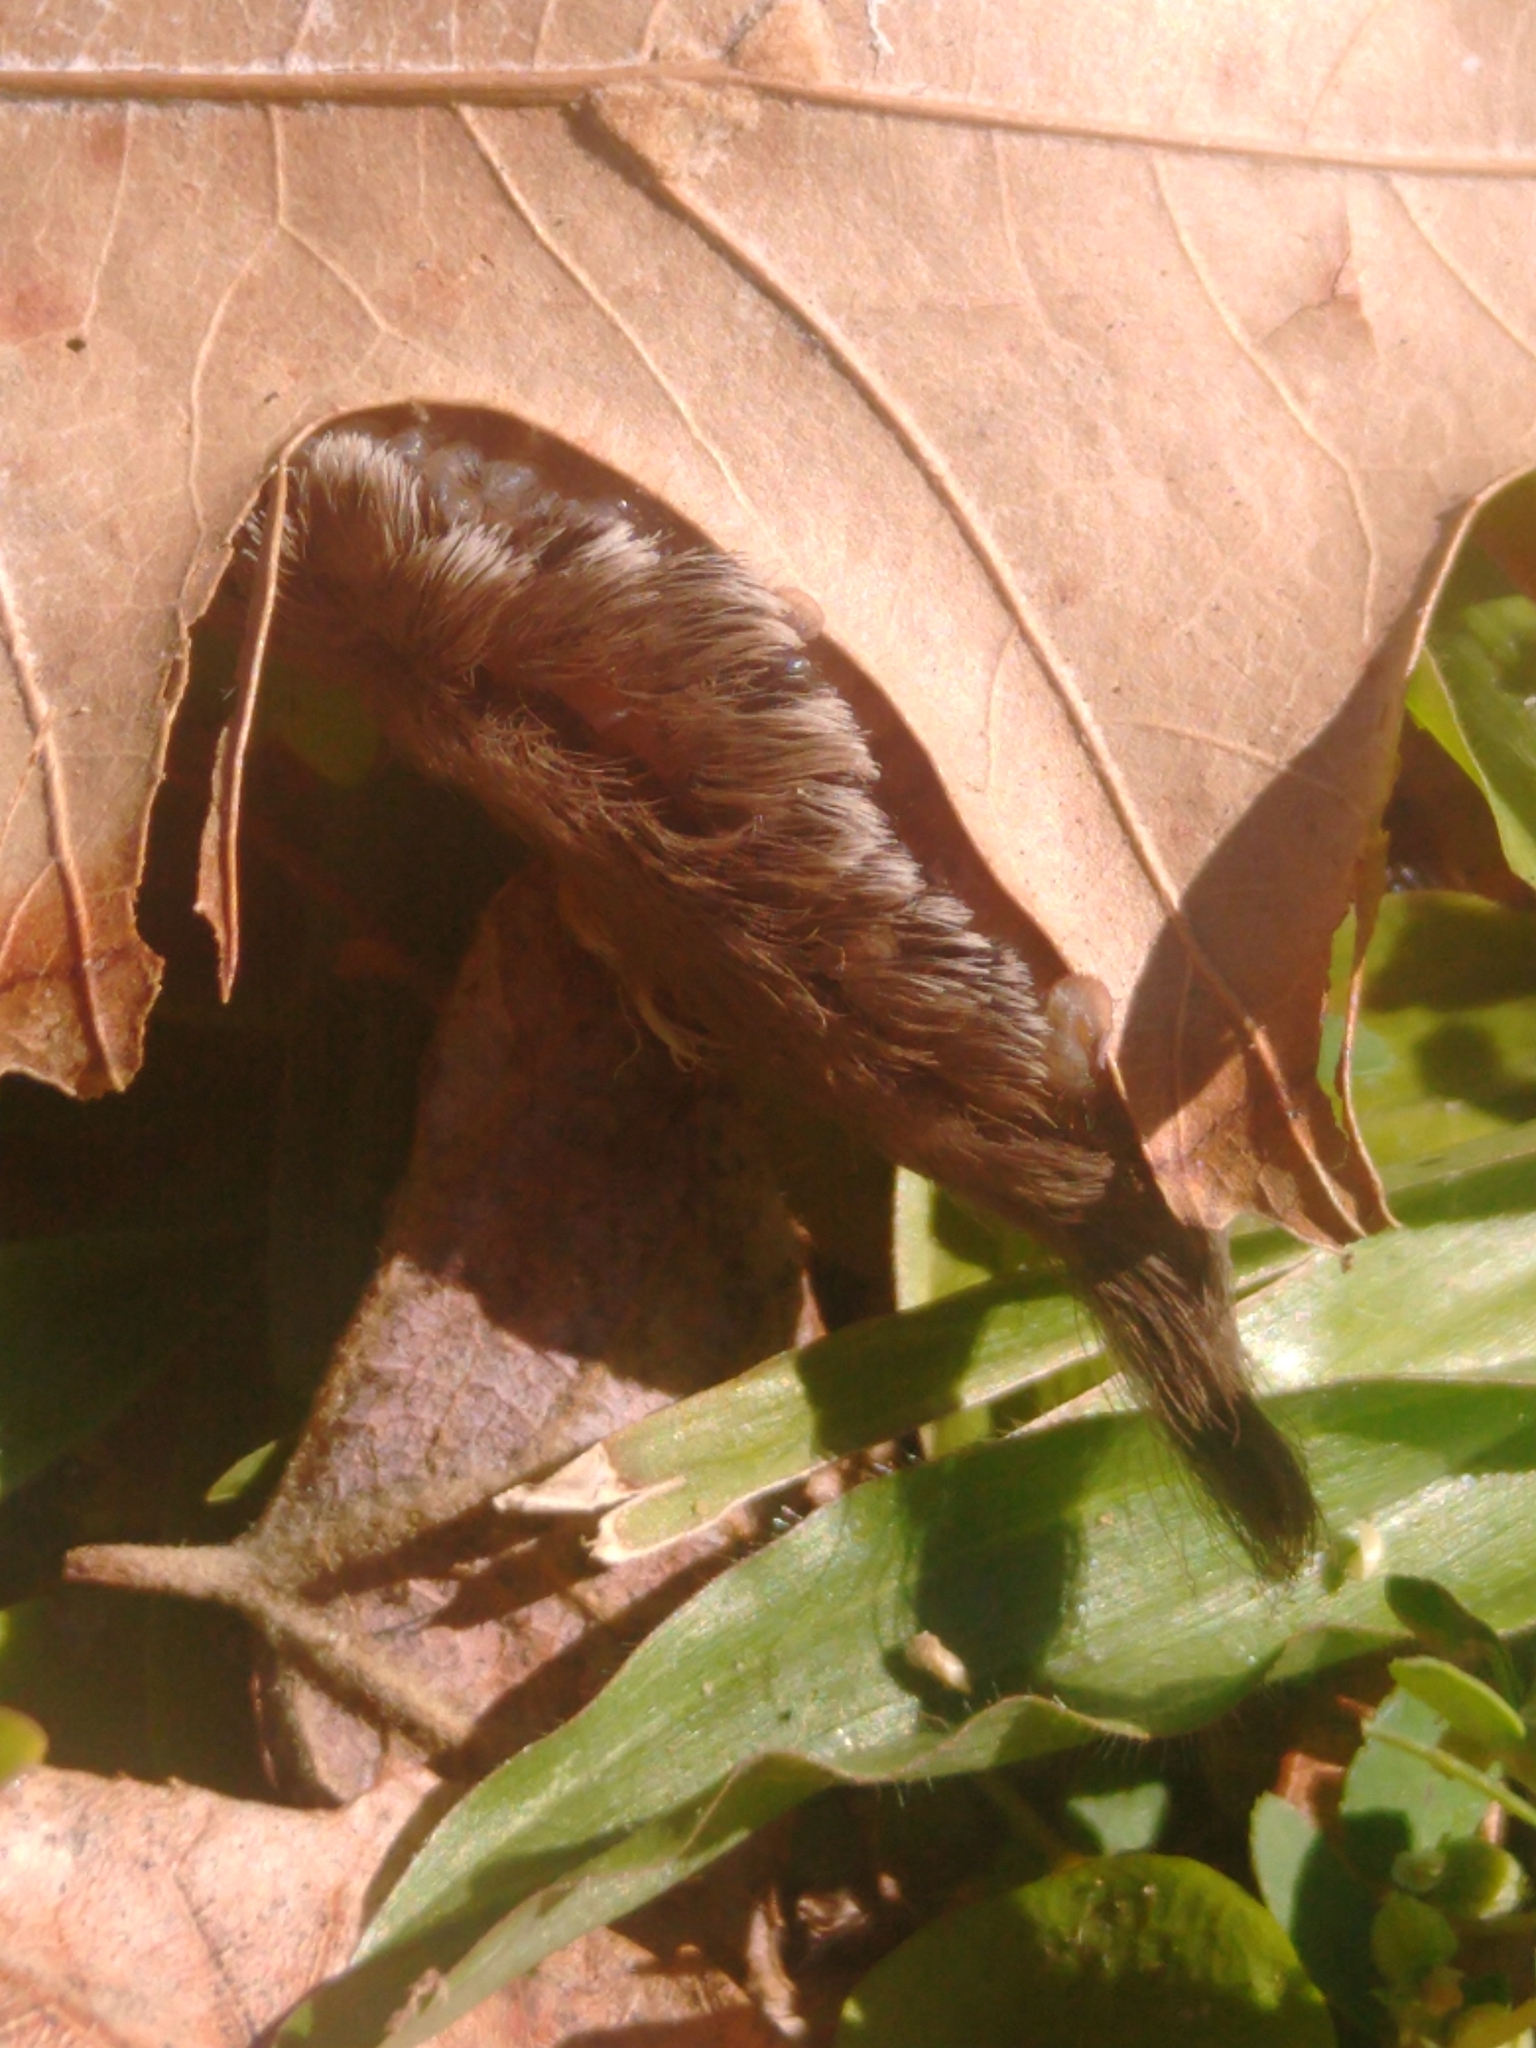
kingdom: Animalia
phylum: Arthropoda
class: Insecta
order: Lepidoptera
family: Megalopygidae
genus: Megalopyge
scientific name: Megalopyge opercularis
